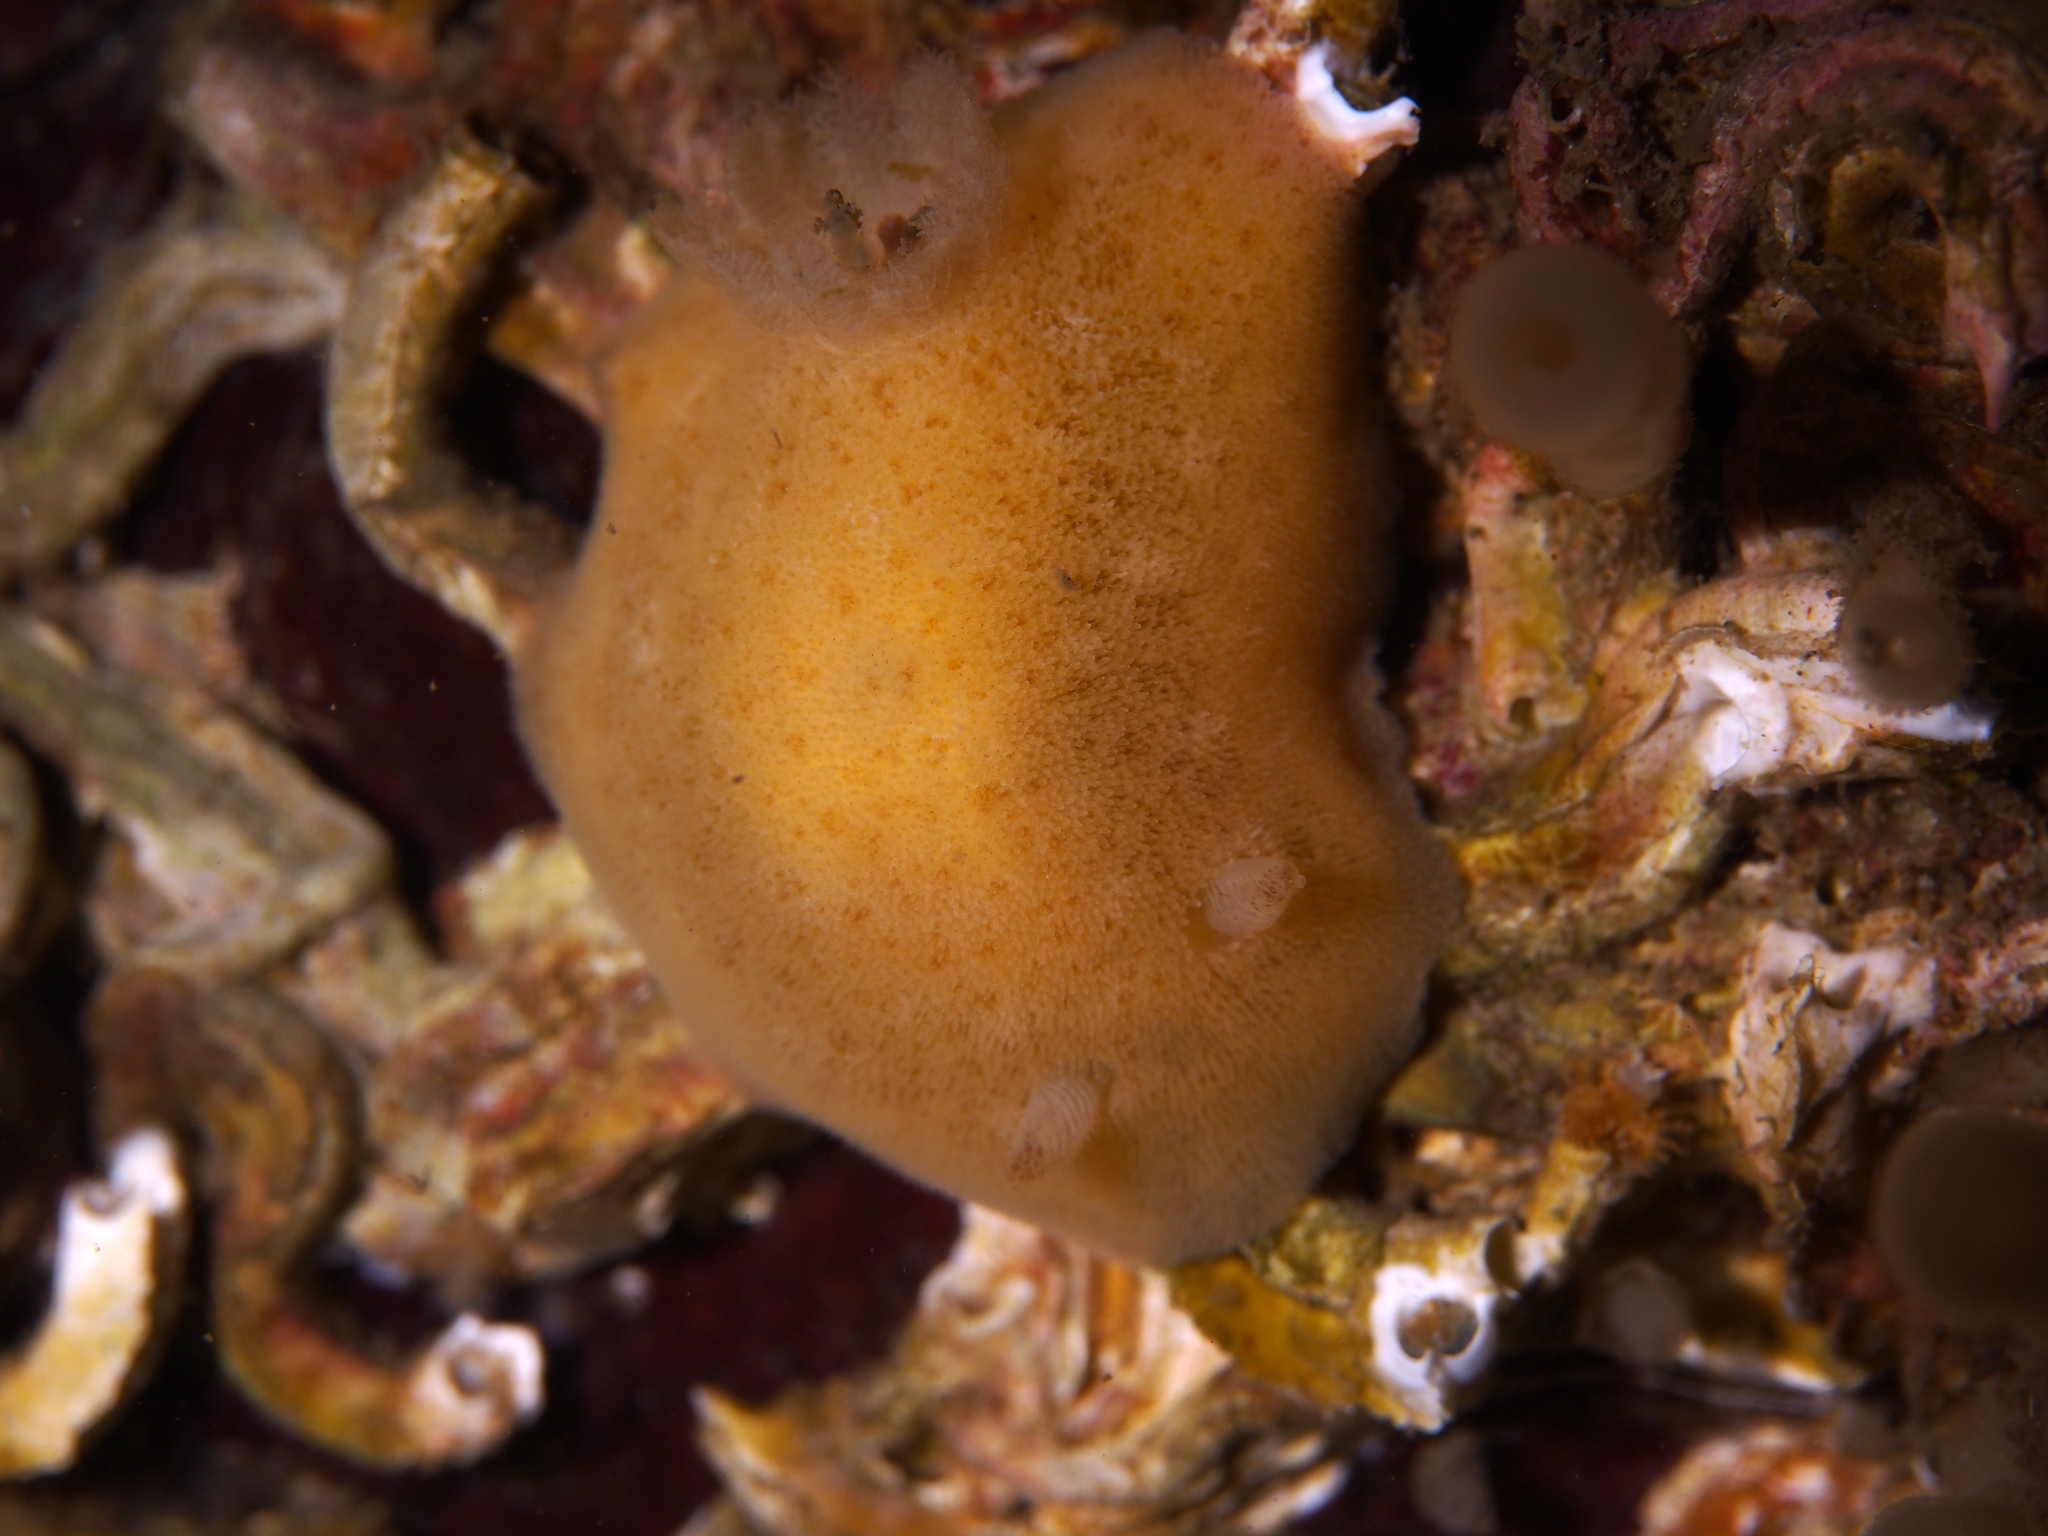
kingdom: Animalia
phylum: Mollusca
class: Gastropoda
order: Nudibranchia
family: Discodorididae
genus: Jorunna
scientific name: Jorunna tomentosa
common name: Grey sea slug
